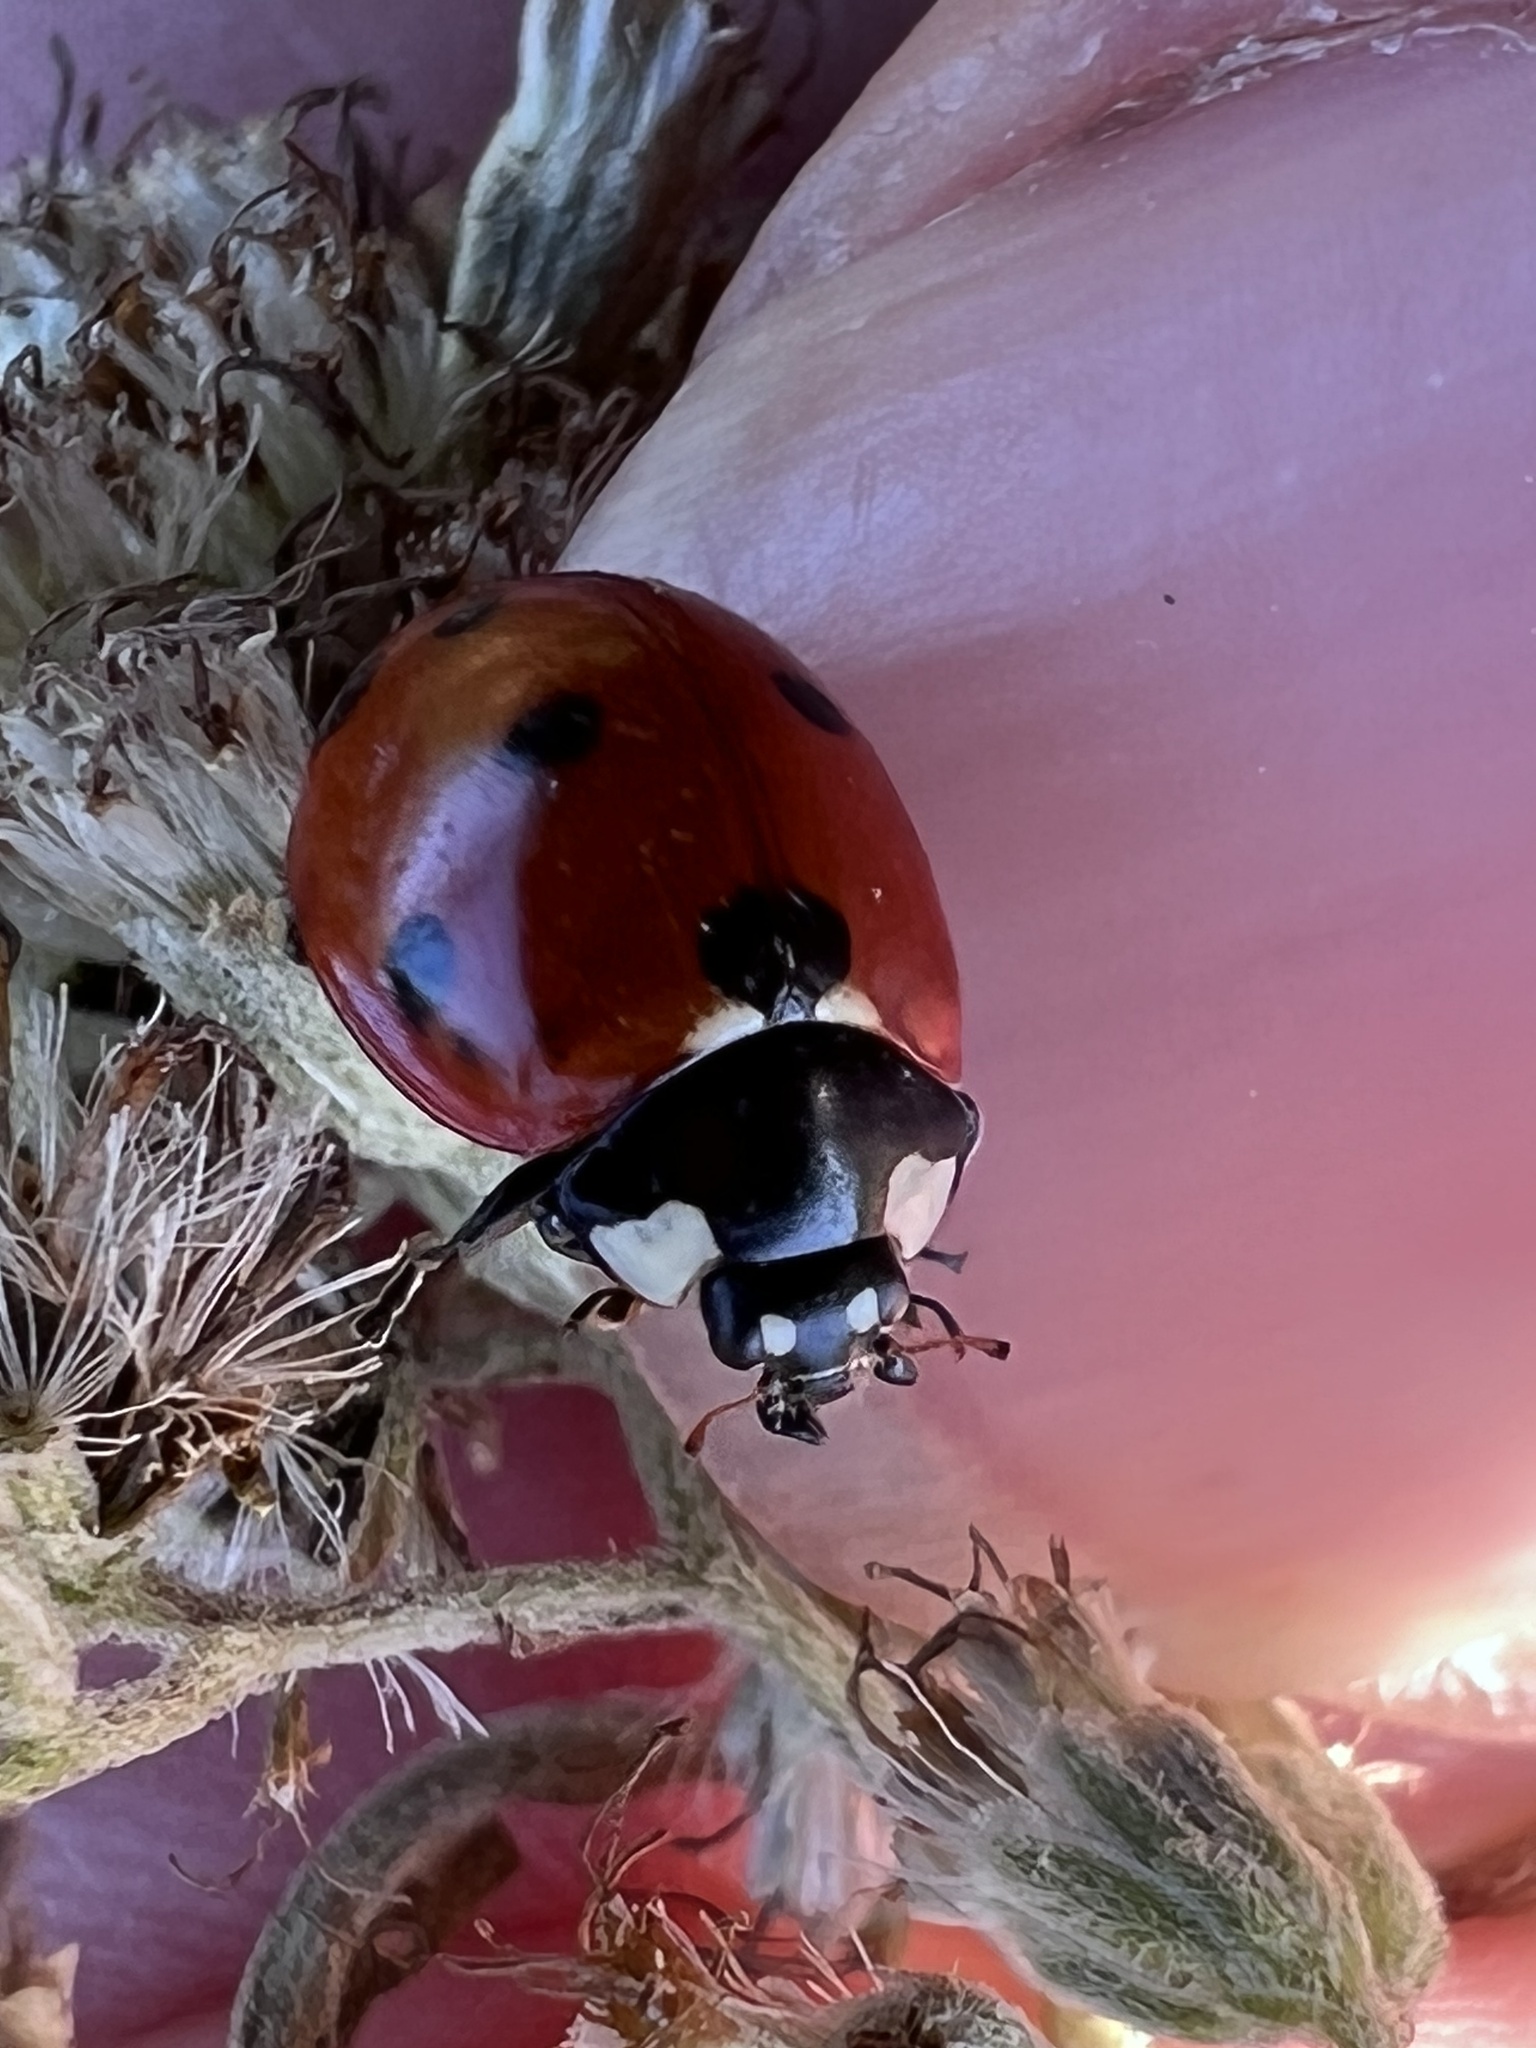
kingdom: Animalia
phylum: Arthropoda
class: Insecta
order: Coleoptera
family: Coccinellidae
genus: Coccinella
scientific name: Coccinella septempunctata
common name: Sevenspotted lady beetle
